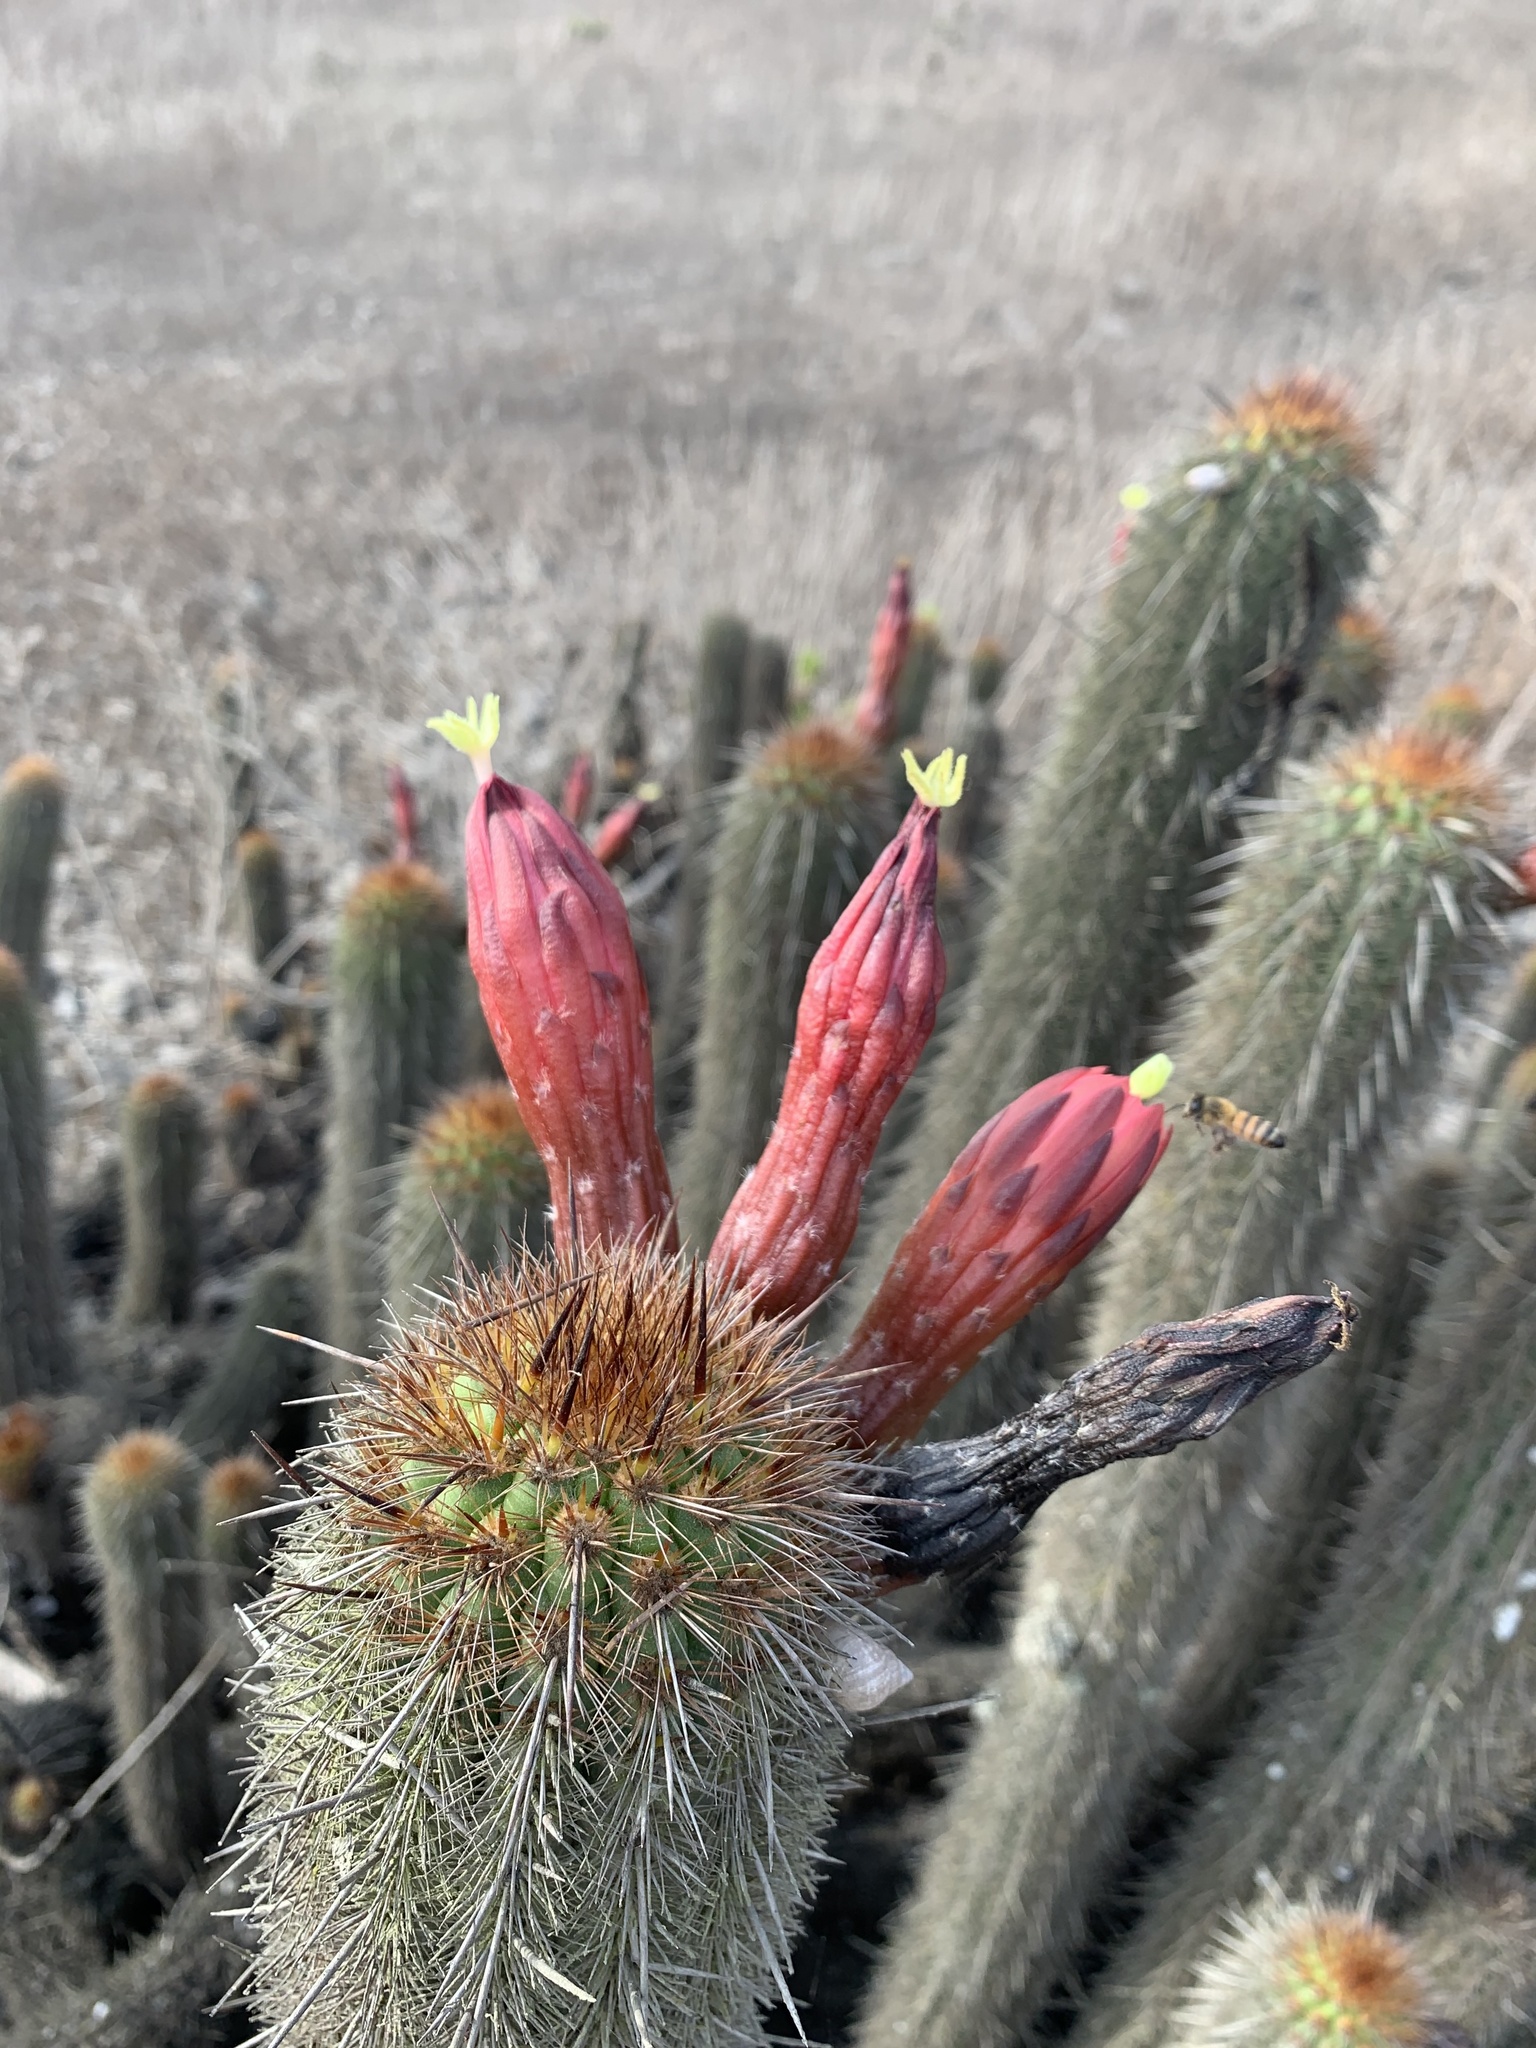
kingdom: Plantae
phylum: Tracheophyta
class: Magnoliopsida
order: Caryophyllales
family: Cactaceae
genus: Haageocereus
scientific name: Haageocereus acranthus
